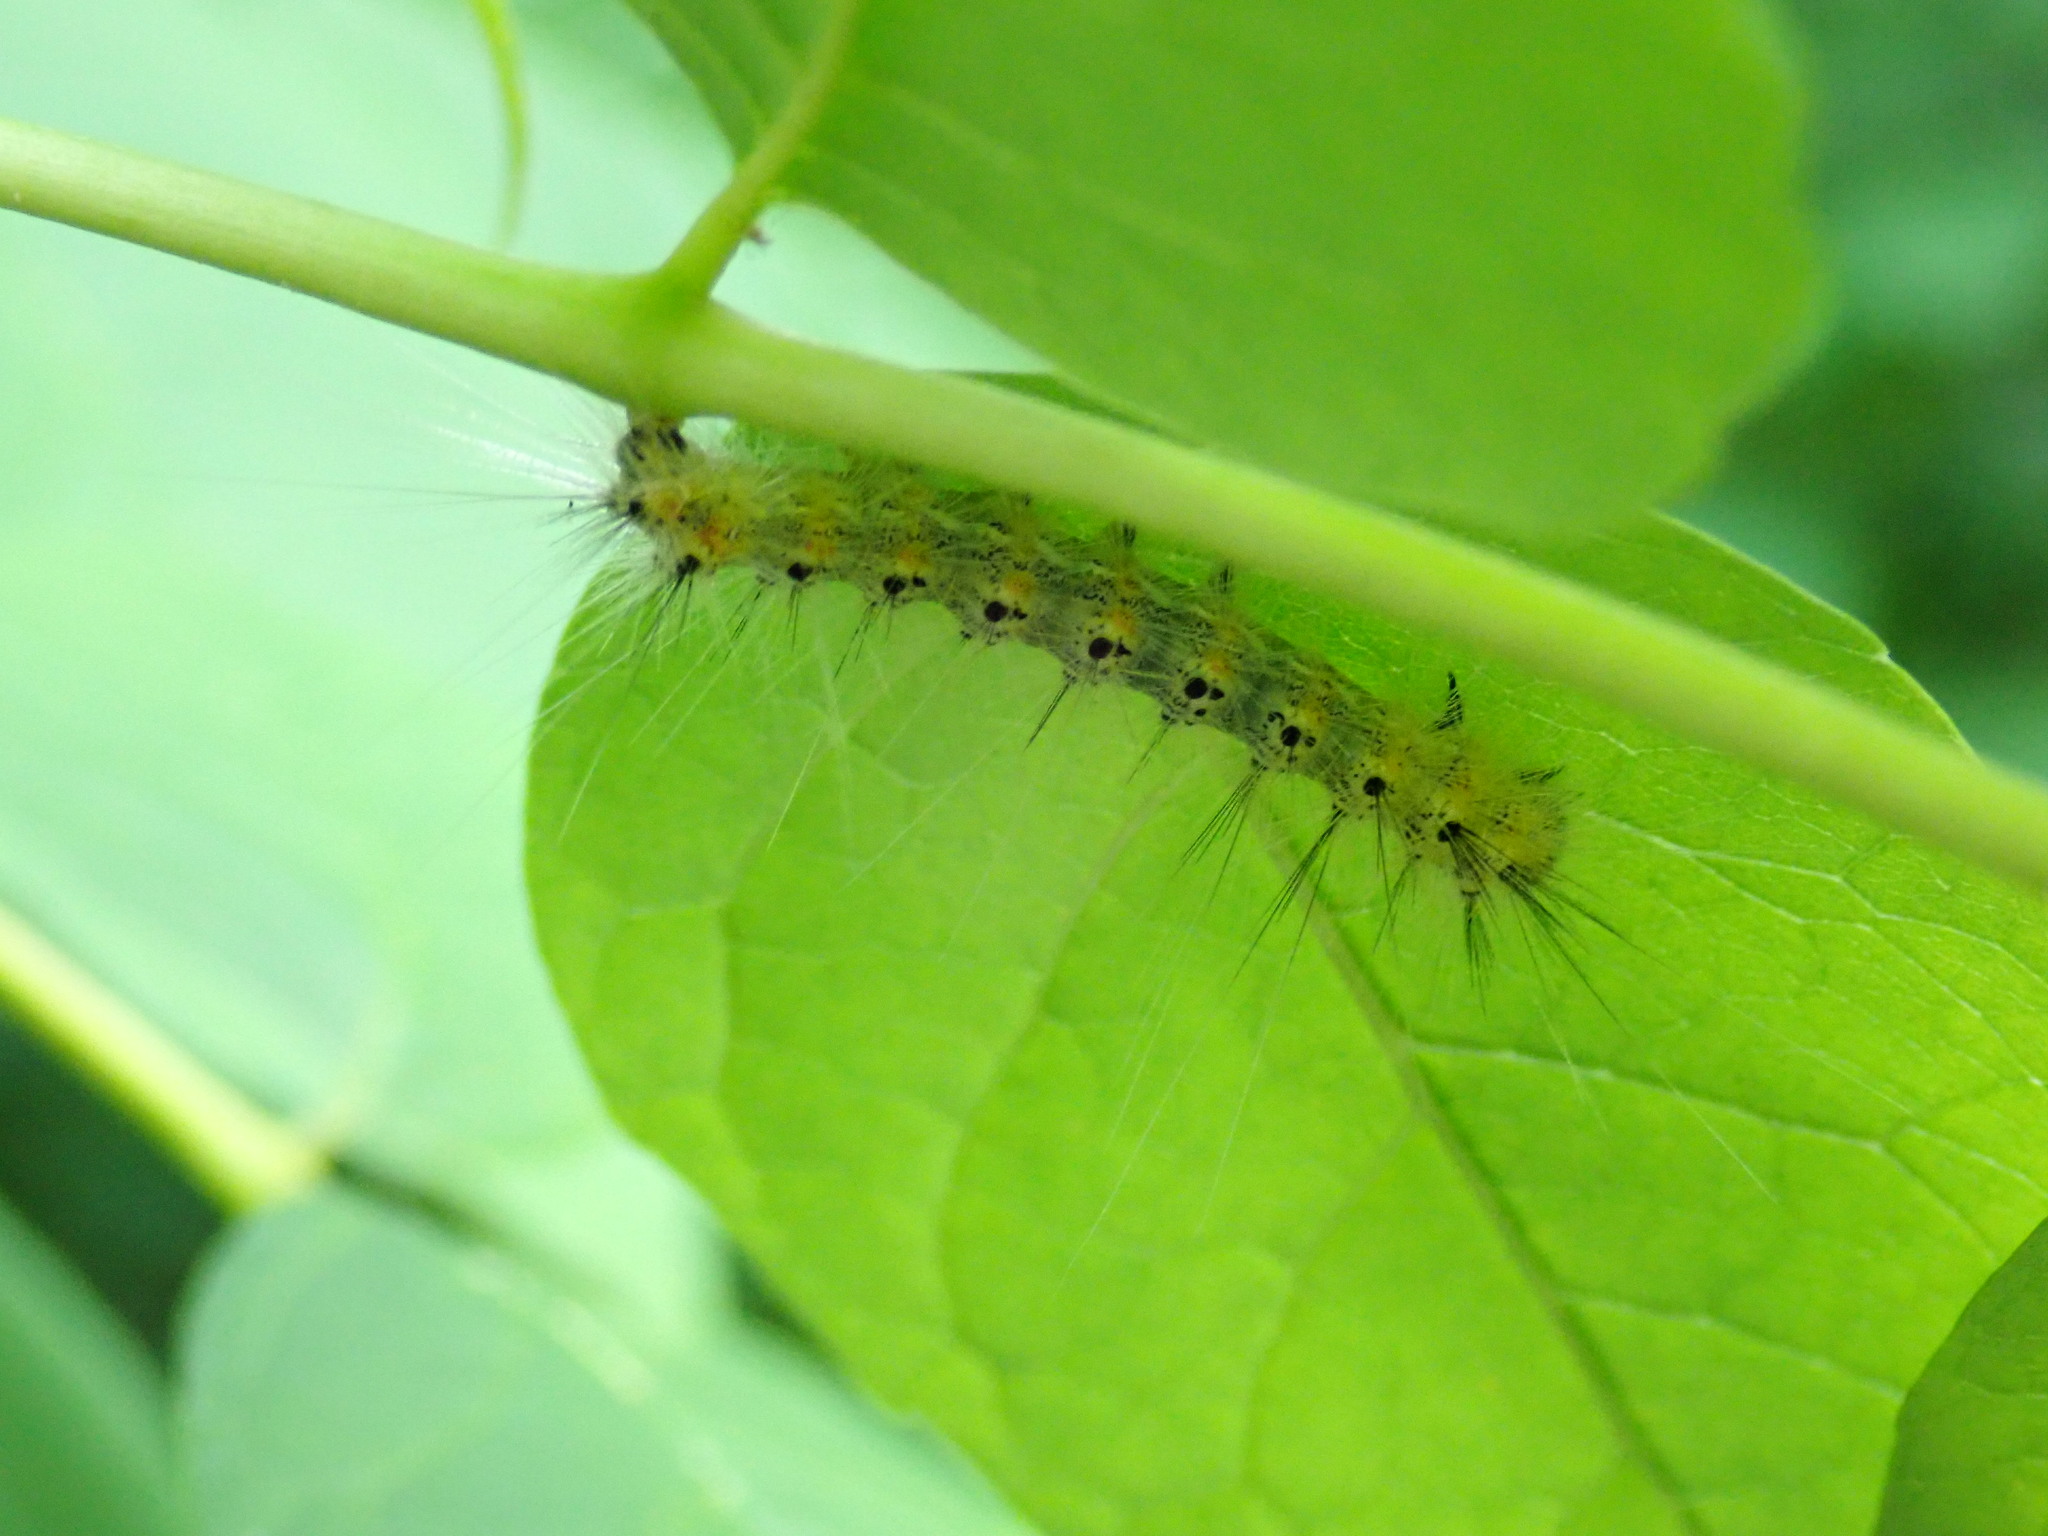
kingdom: Animalia
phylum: Arthropoda
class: Insecta
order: Lepidoptera
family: Erebidae
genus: Hyphantria
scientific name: Hyphantria cunea
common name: American white moth
